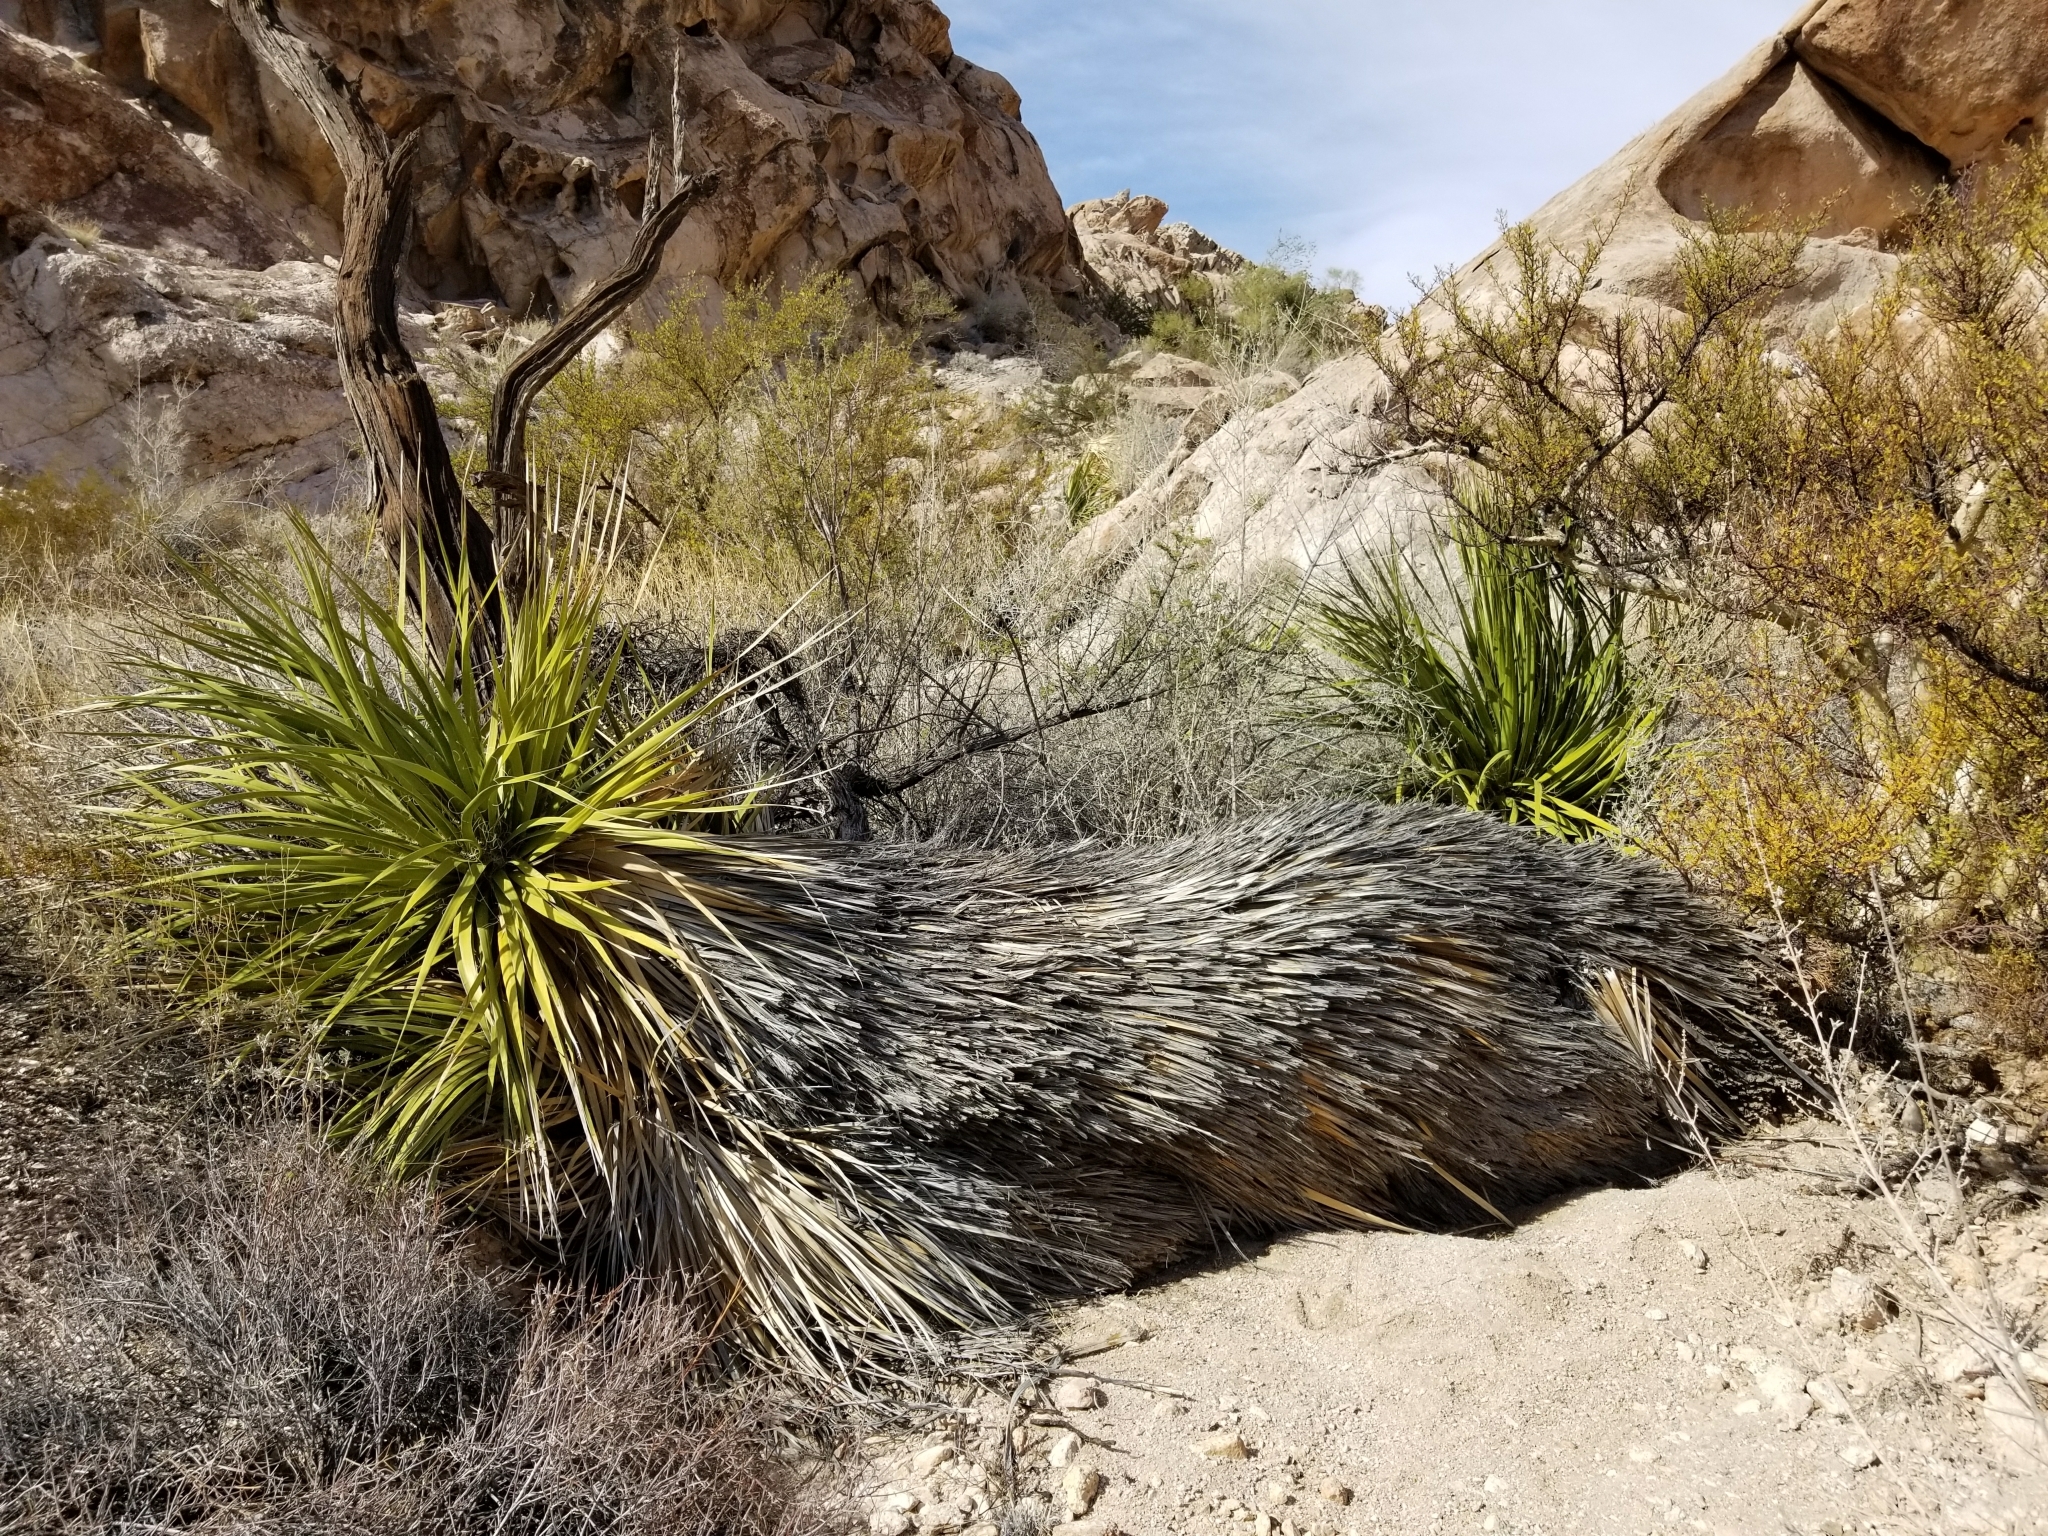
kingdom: Plantae
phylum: Tracheophyta
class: Liliopsida
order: Asparagales
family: Asparagaceae
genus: Nolina
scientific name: Nolina bigelovii
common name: Bigelow bear-grass
